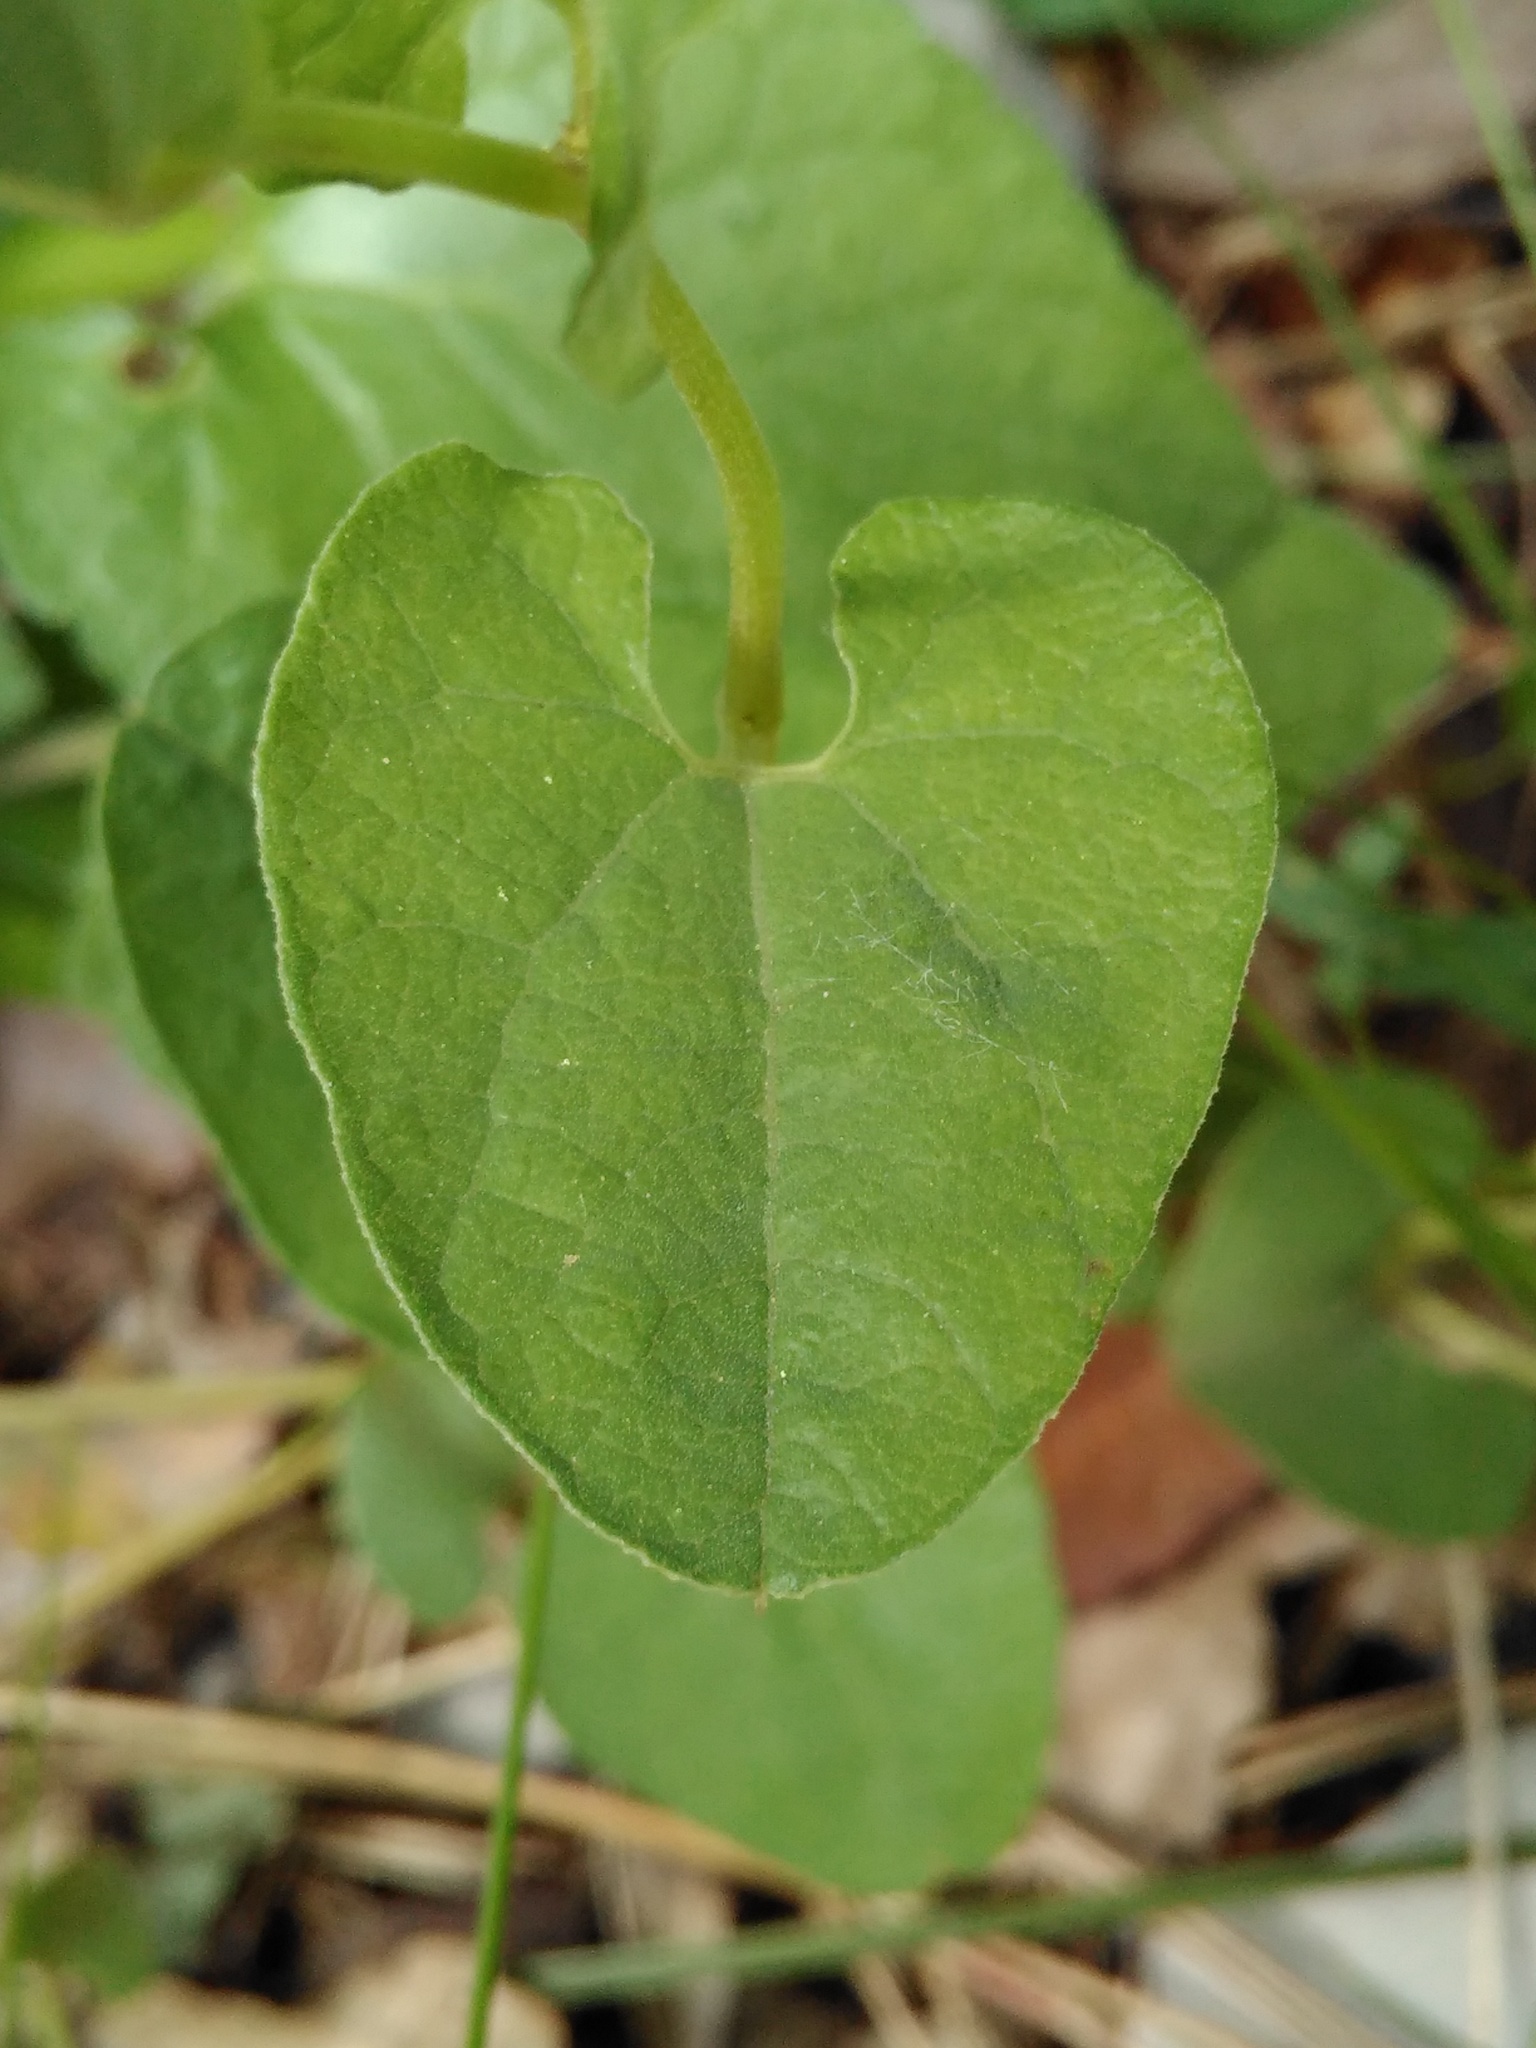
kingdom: Plantae
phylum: Tracheophyta
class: Magnoliopsida
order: Piperales
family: Aristolochiaceae
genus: Aristolochia
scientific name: Aristolochia rotunda
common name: Smearwort
